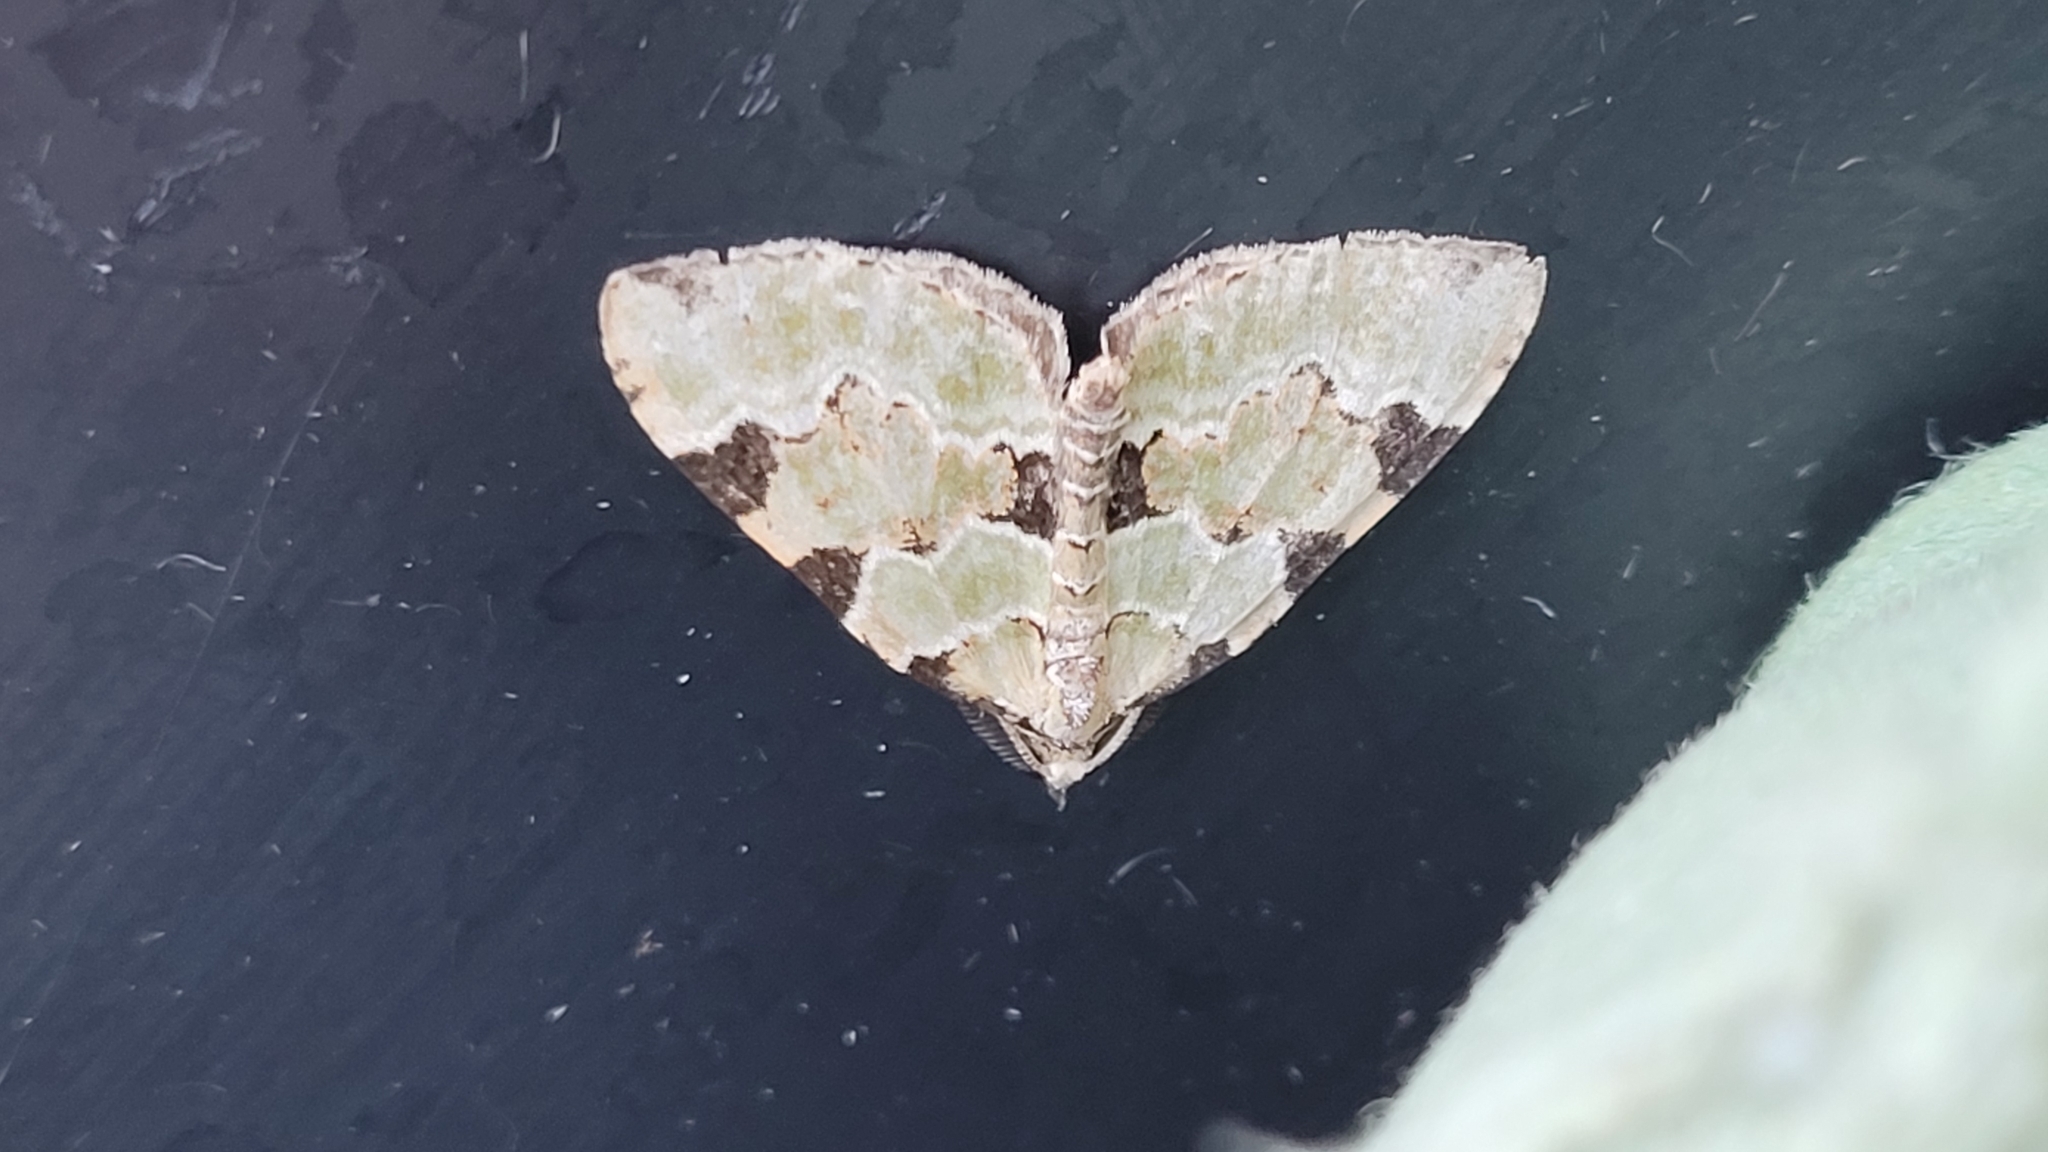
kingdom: Animalia
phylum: Arthropoda
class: Insecta
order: Lepidoptera
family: Geometridae
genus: Colostygia
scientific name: Colostygia pectinataria
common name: Green carpet
